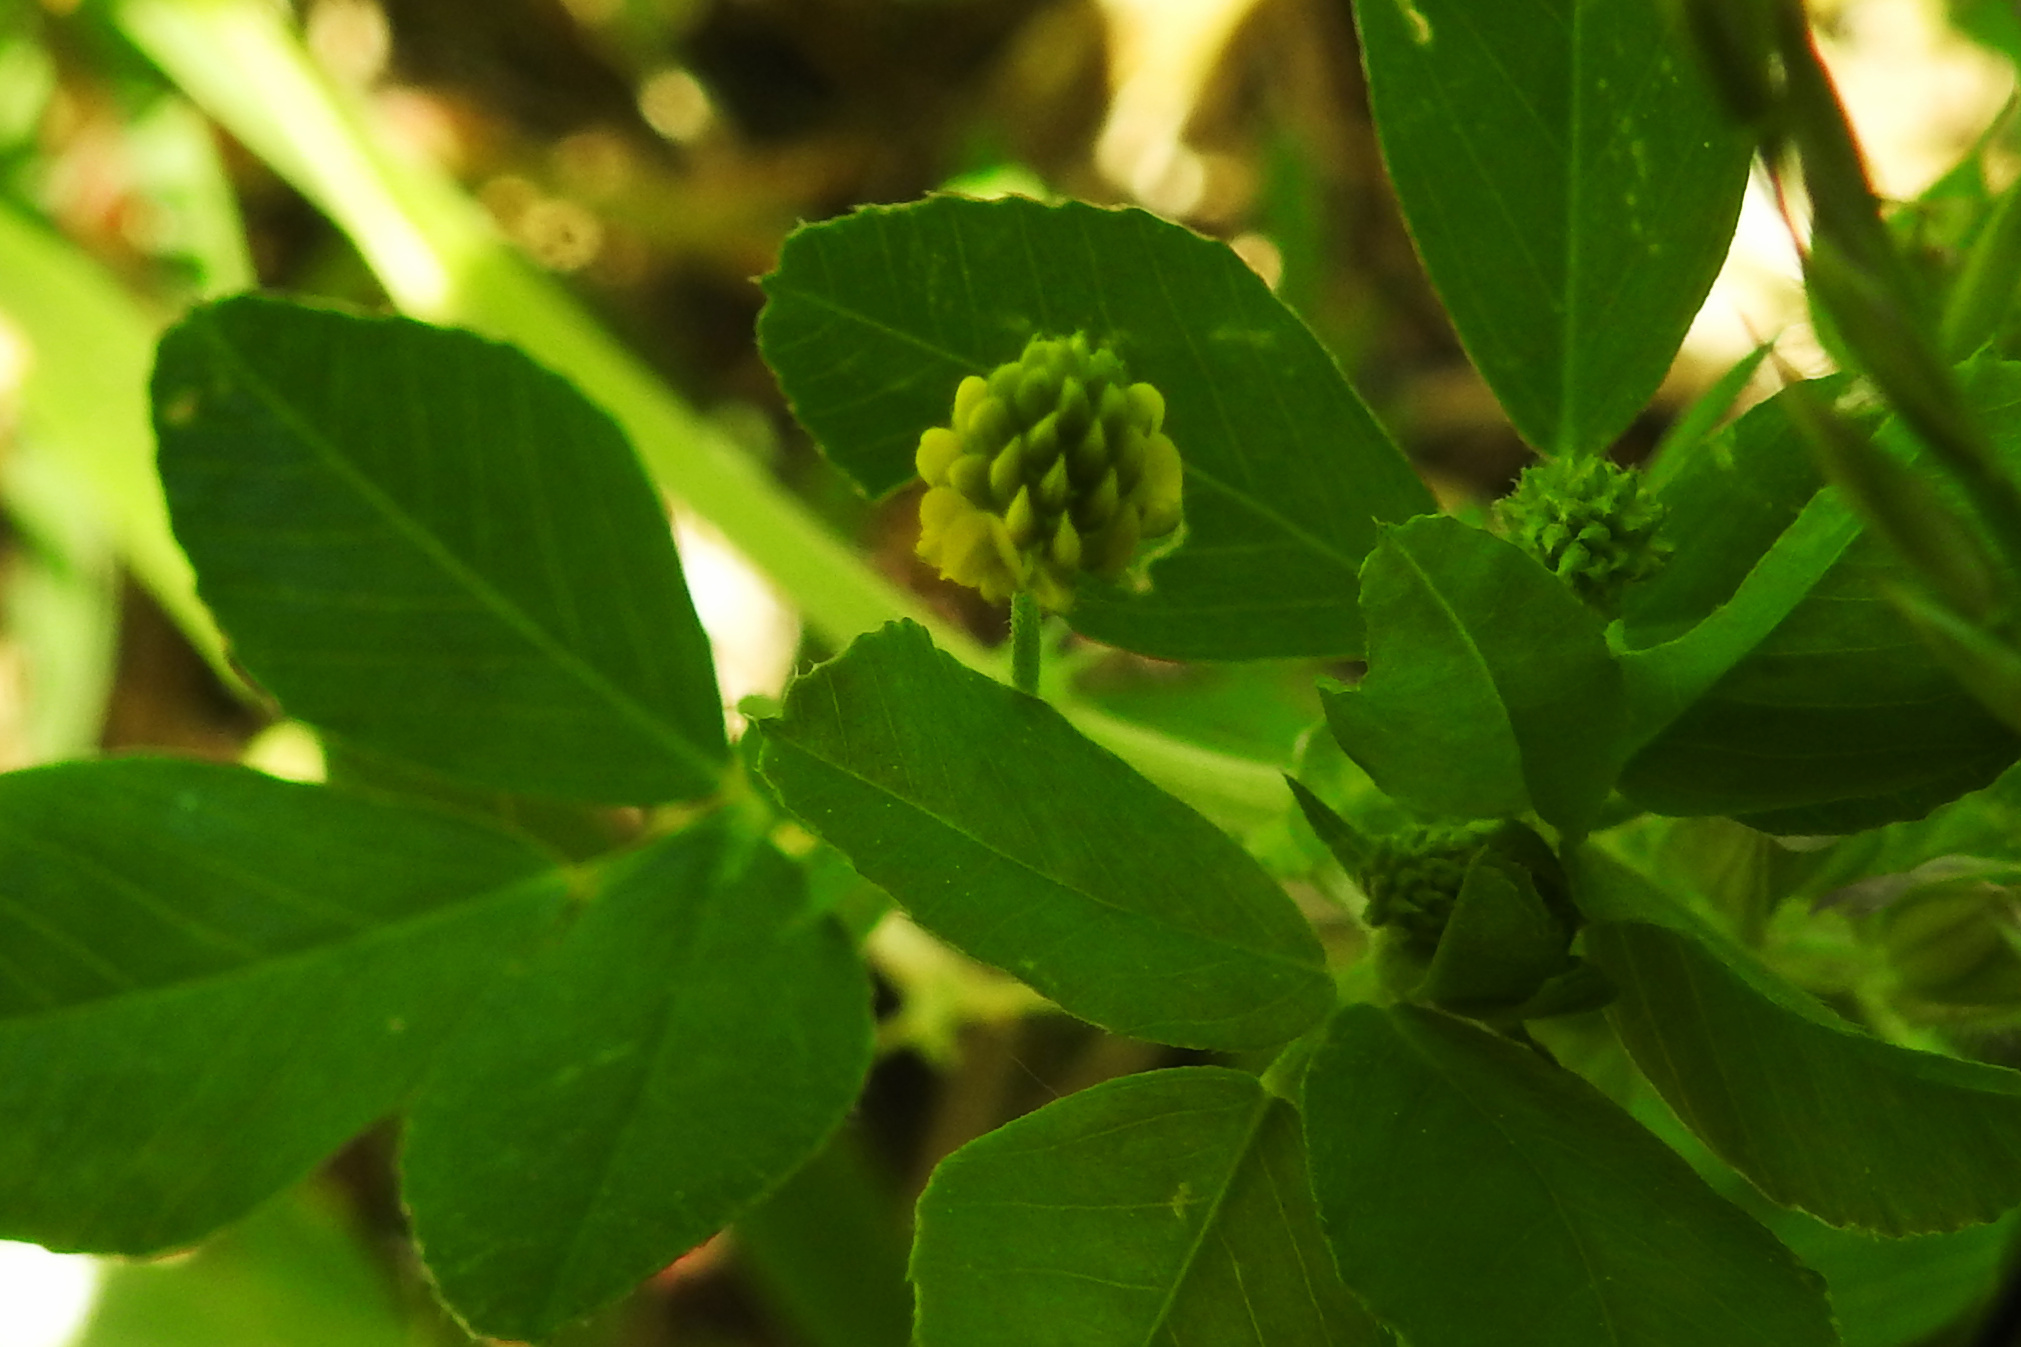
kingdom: Plantae
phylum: Tracheophyta
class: Magnoliopsida
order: Fabales
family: Fabaceae
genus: Medicago
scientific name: Medicago lupulina
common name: Black medick
